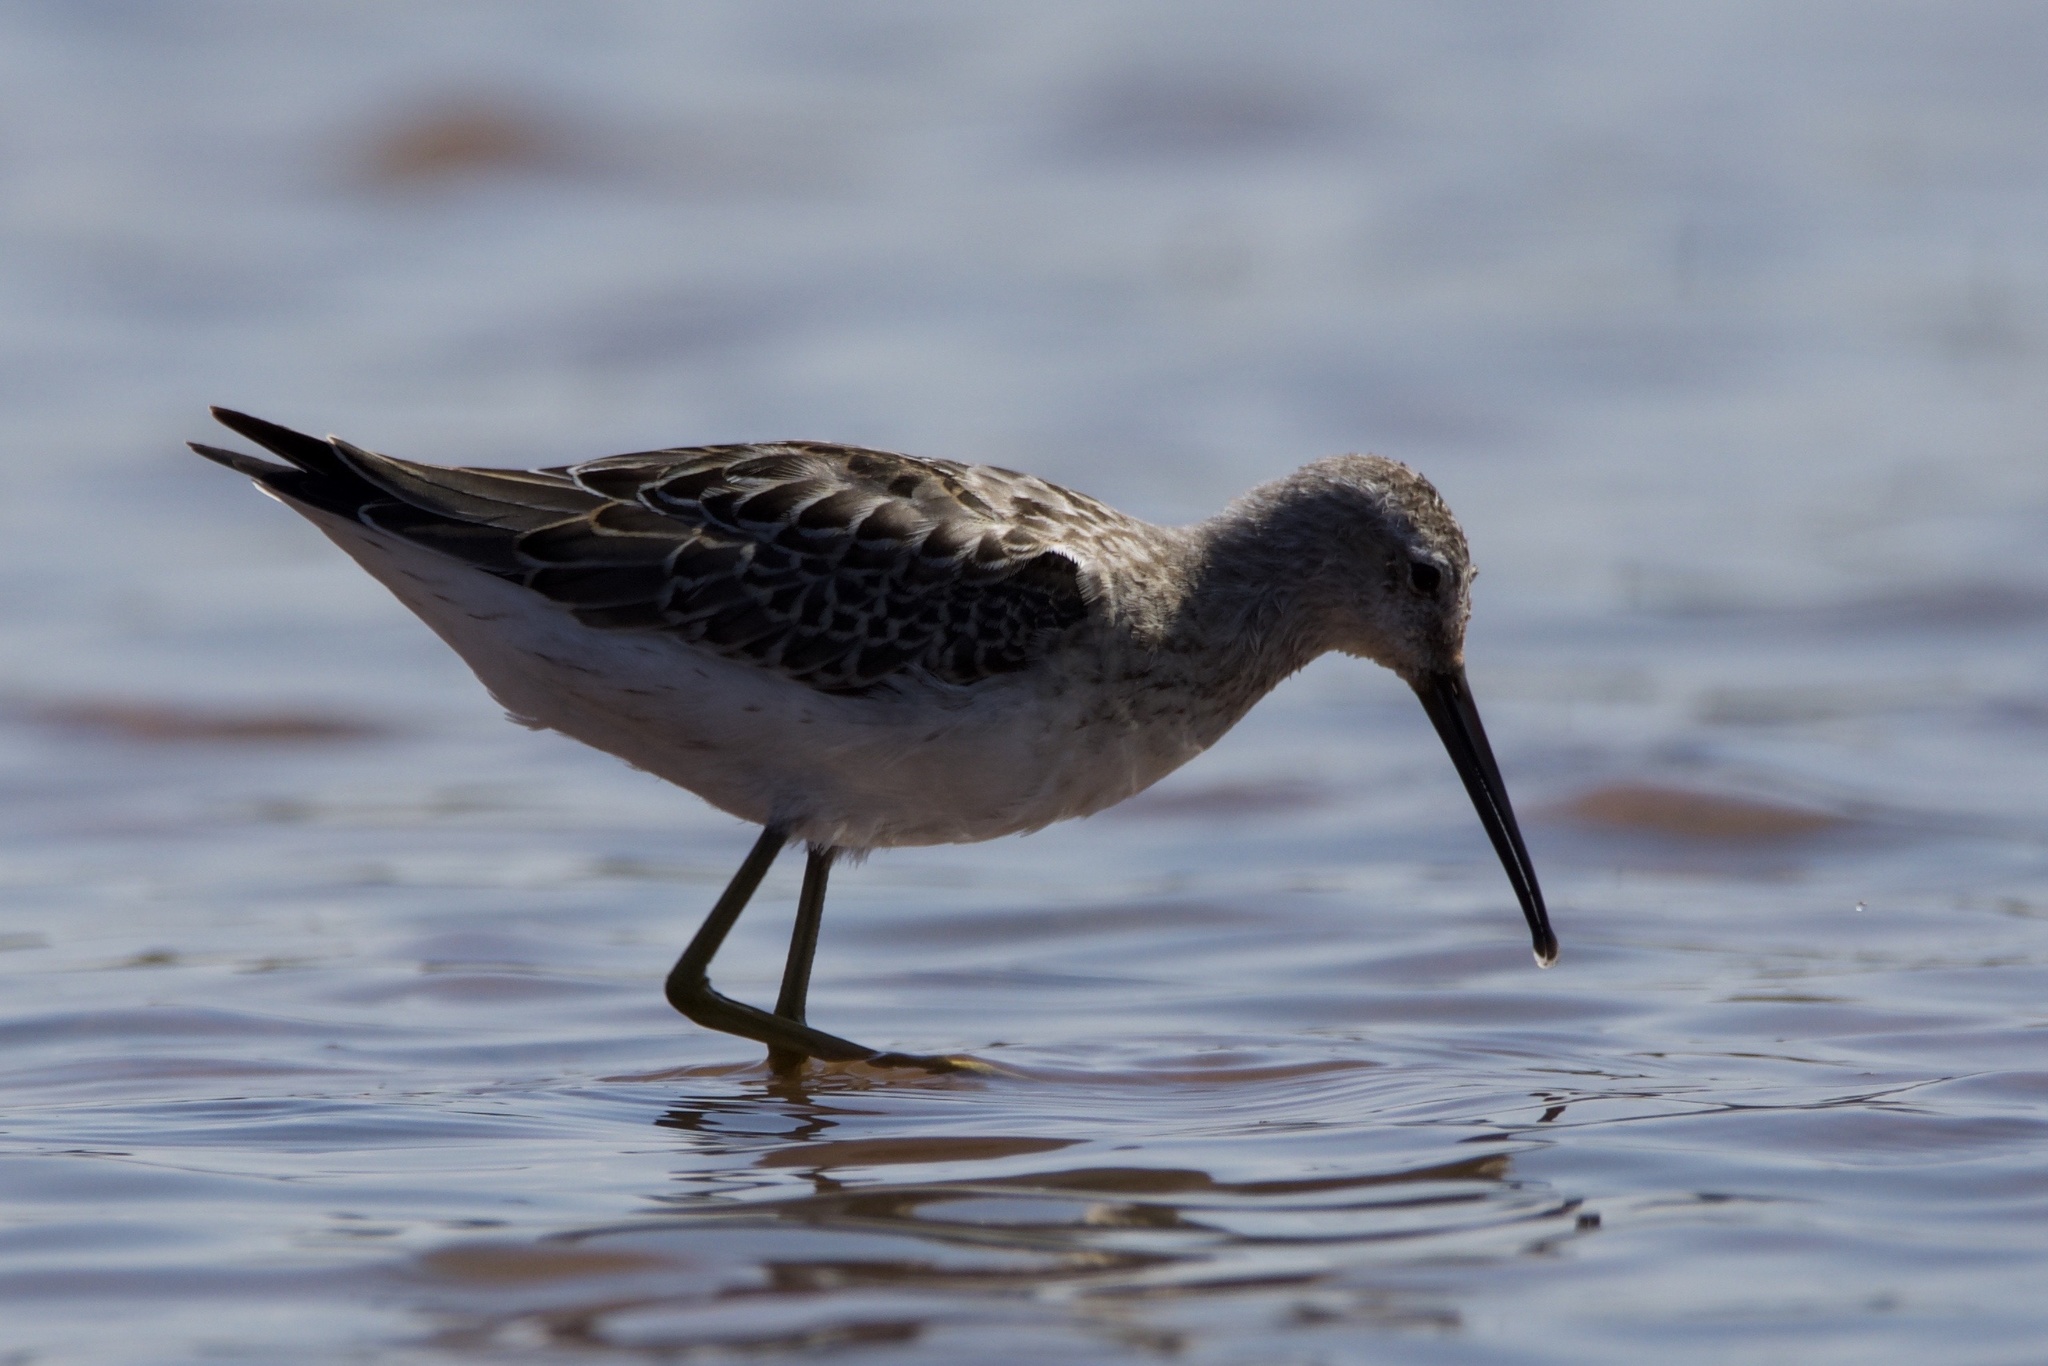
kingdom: Animalia
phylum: Chordata
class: Aves
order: Charadriiformes
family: Scolopacidae
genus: Calidris
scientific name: Calidris himantopus
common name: Stilt sandpiper
